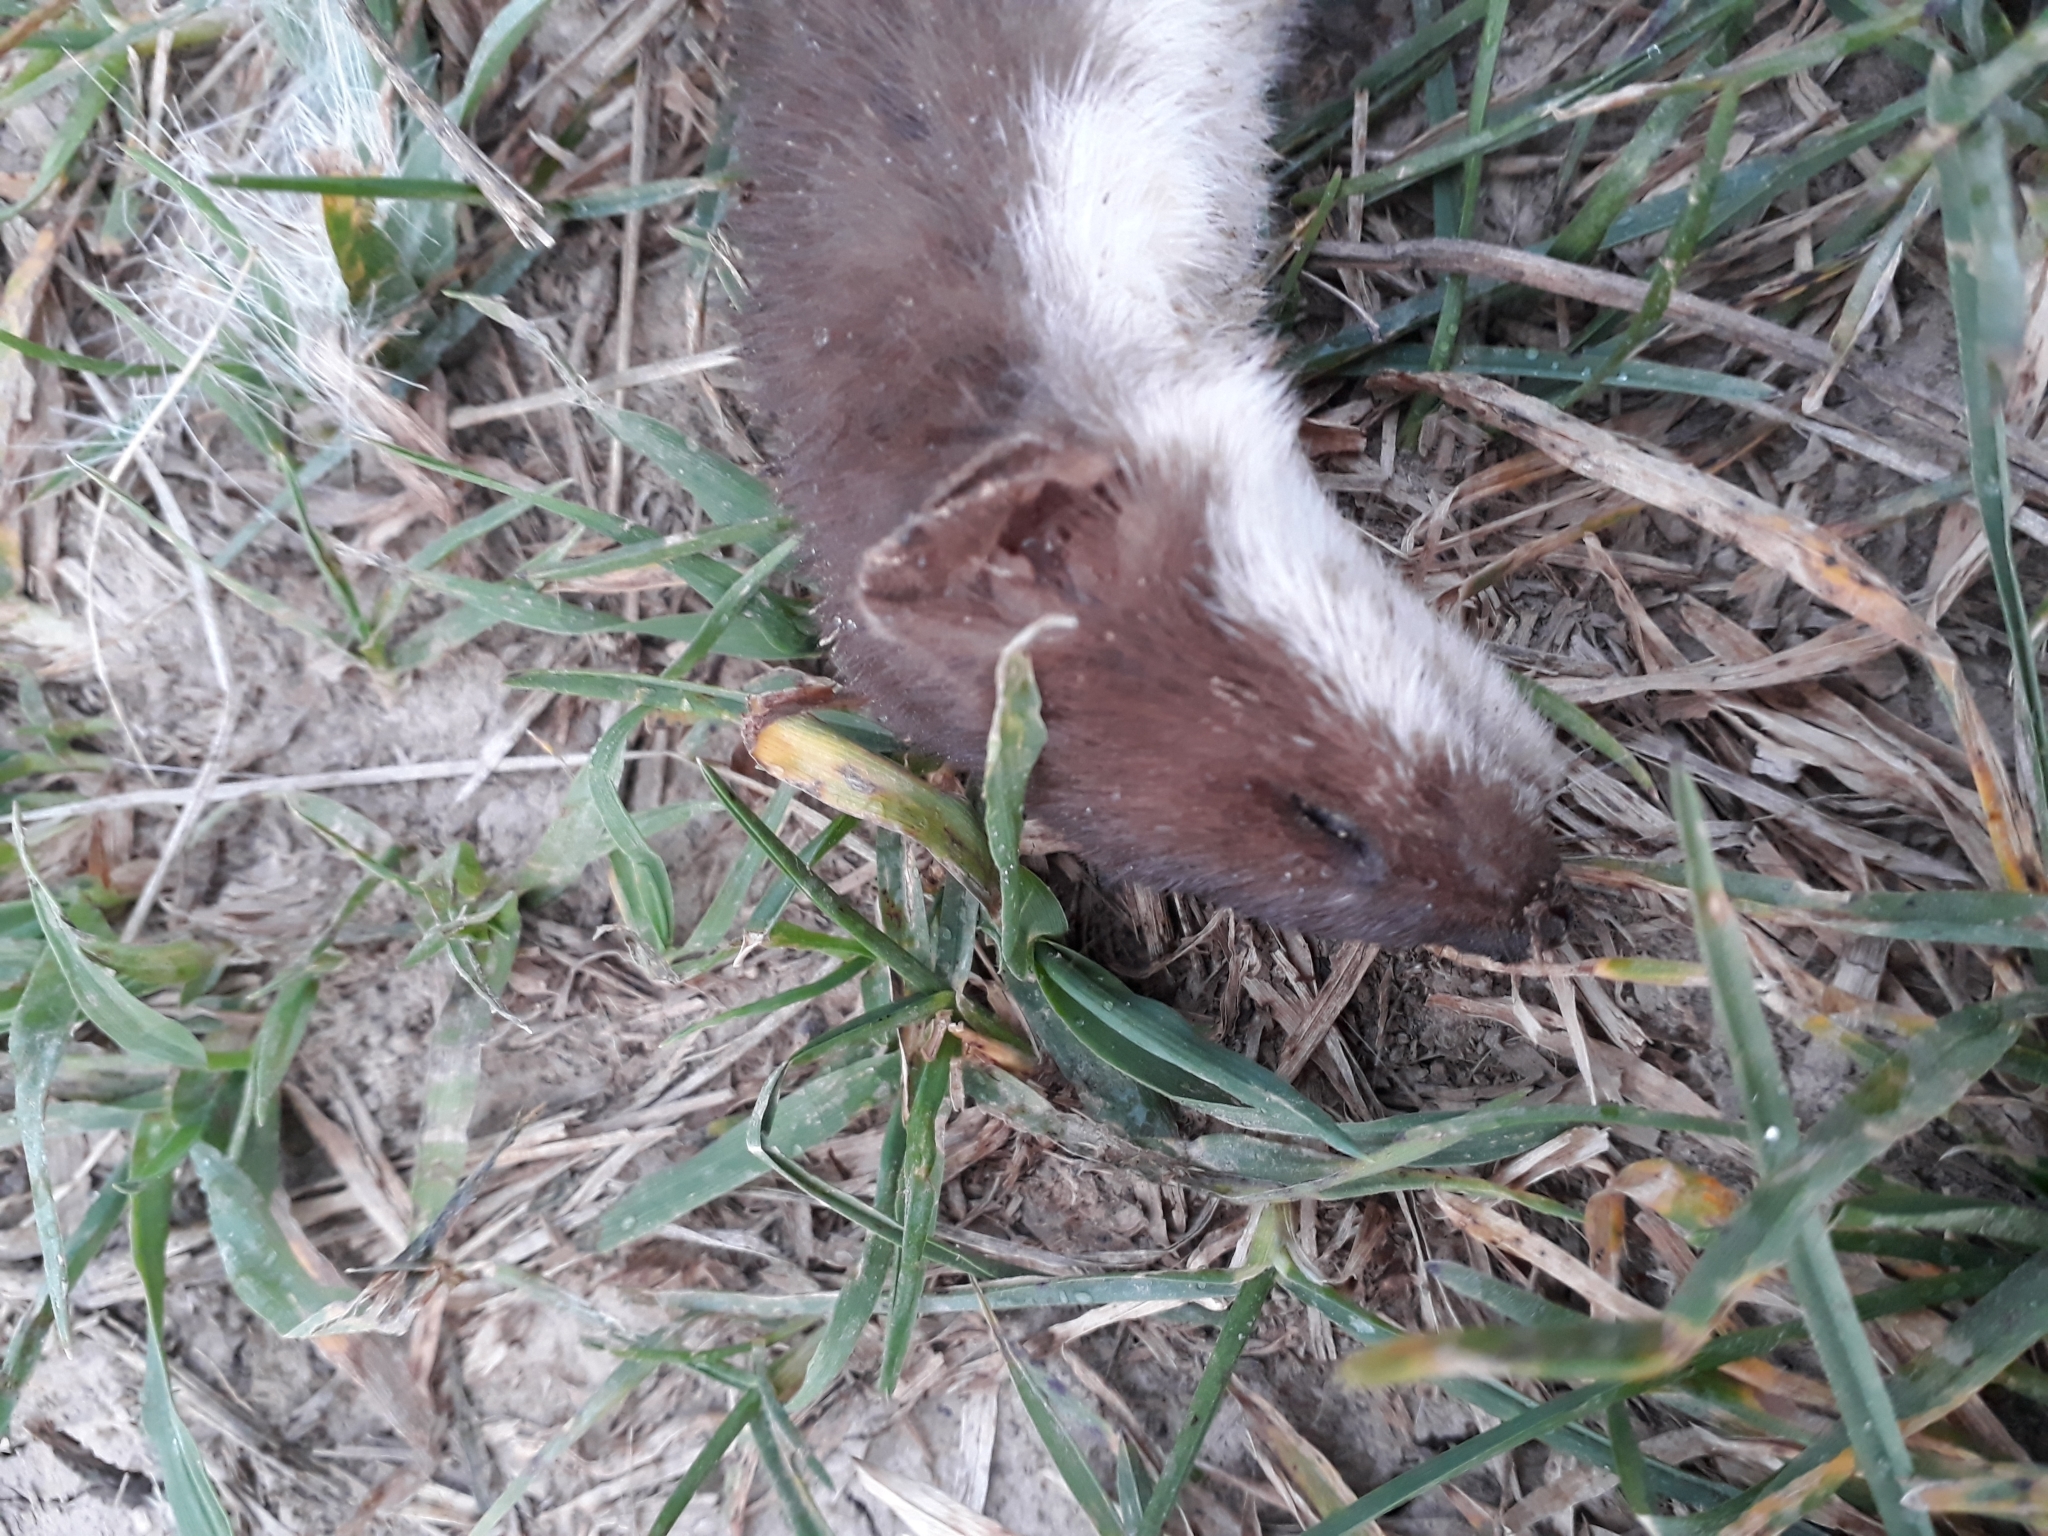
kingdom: Animalia
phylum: Chordata
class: Mammalia
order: Carnivora
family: Mustelidae
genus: Mustela
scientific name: Mustela nivalis
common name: Least weasel
